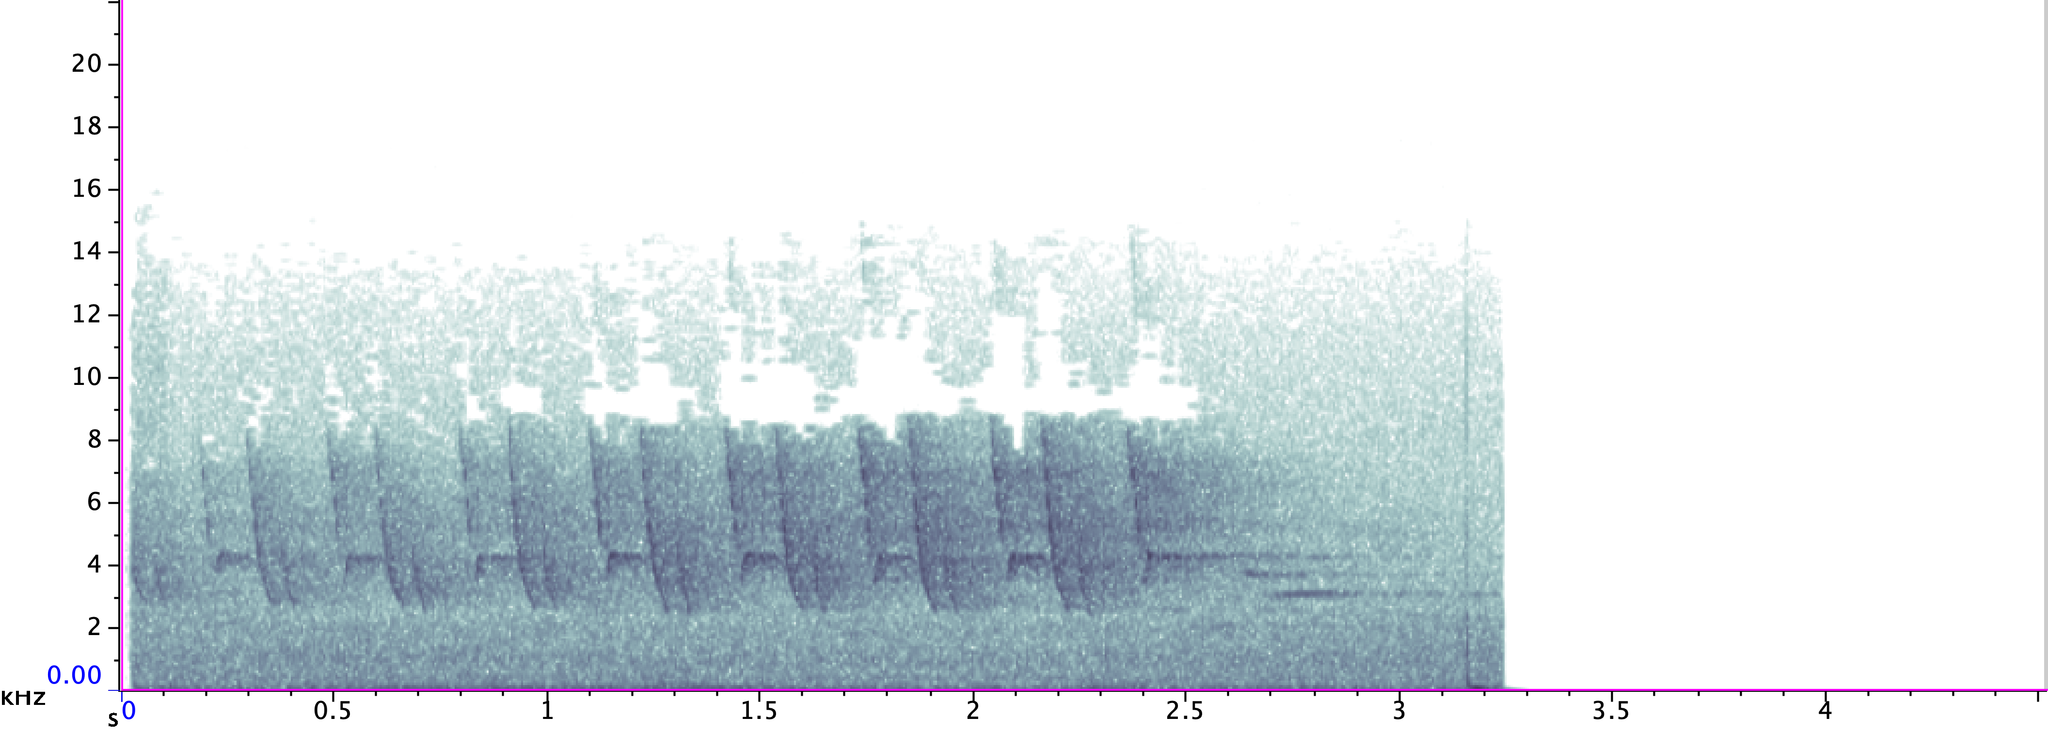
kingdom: Animalia
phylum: Chordata
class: Aves
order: Passeriformes
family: Parulidae
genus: Seiurus
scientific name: Seiurus aurocapilla
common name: Ovenbird
